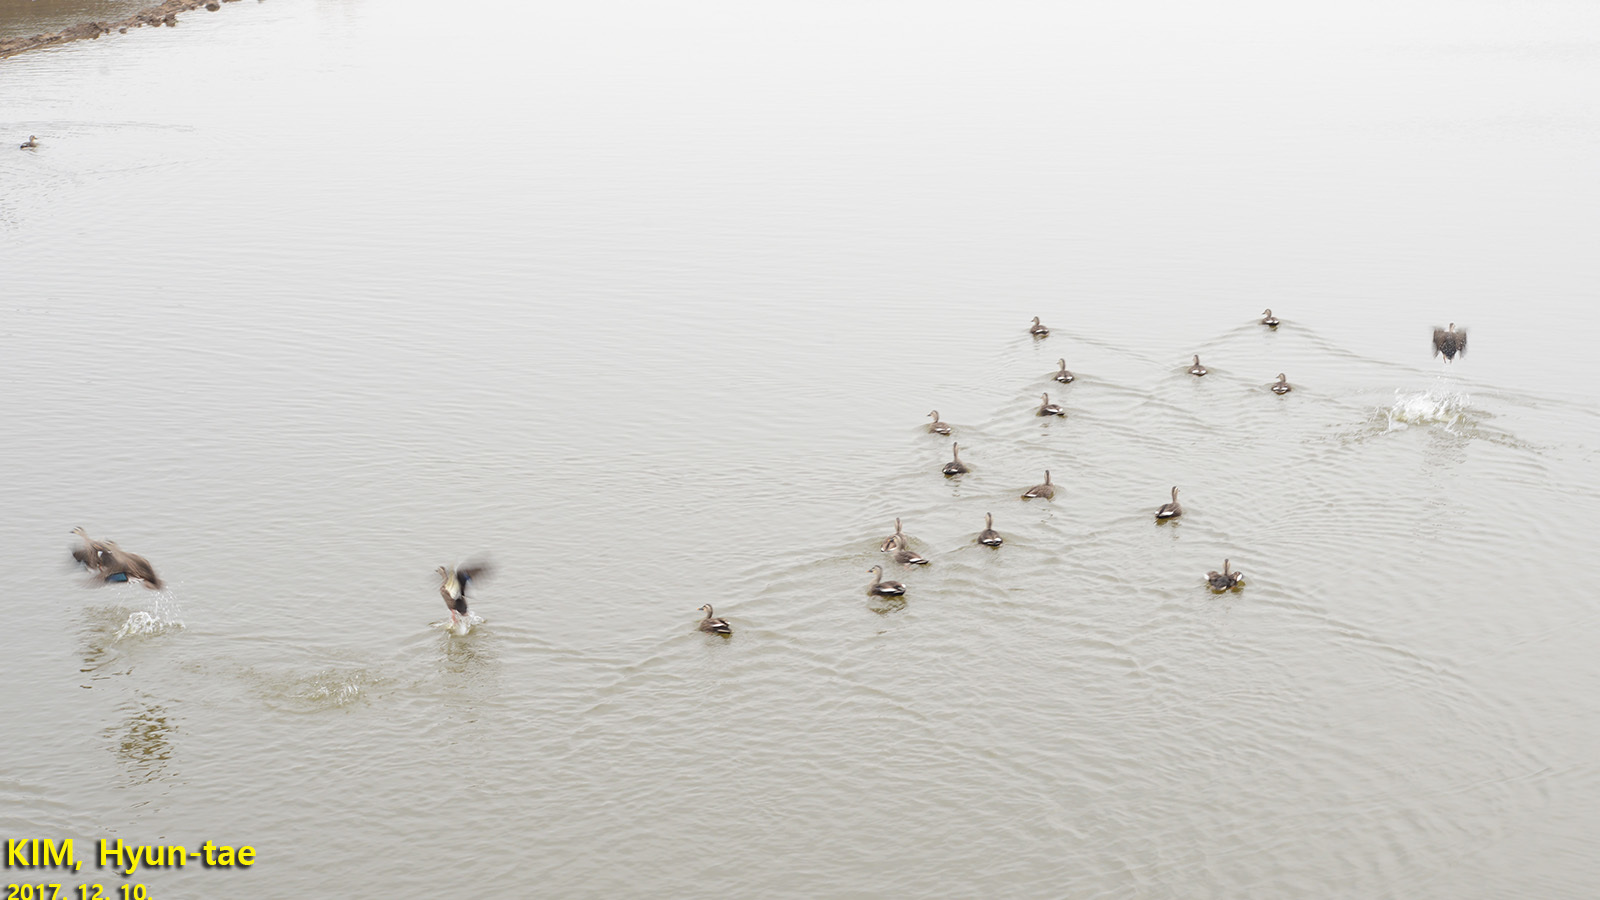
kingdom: Animalia
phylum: Chordata
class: Aves
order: Anseriformes
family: Anatidae
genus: Anas
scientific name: Anas zonorhyncha
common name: Eastern spot-billed duck
